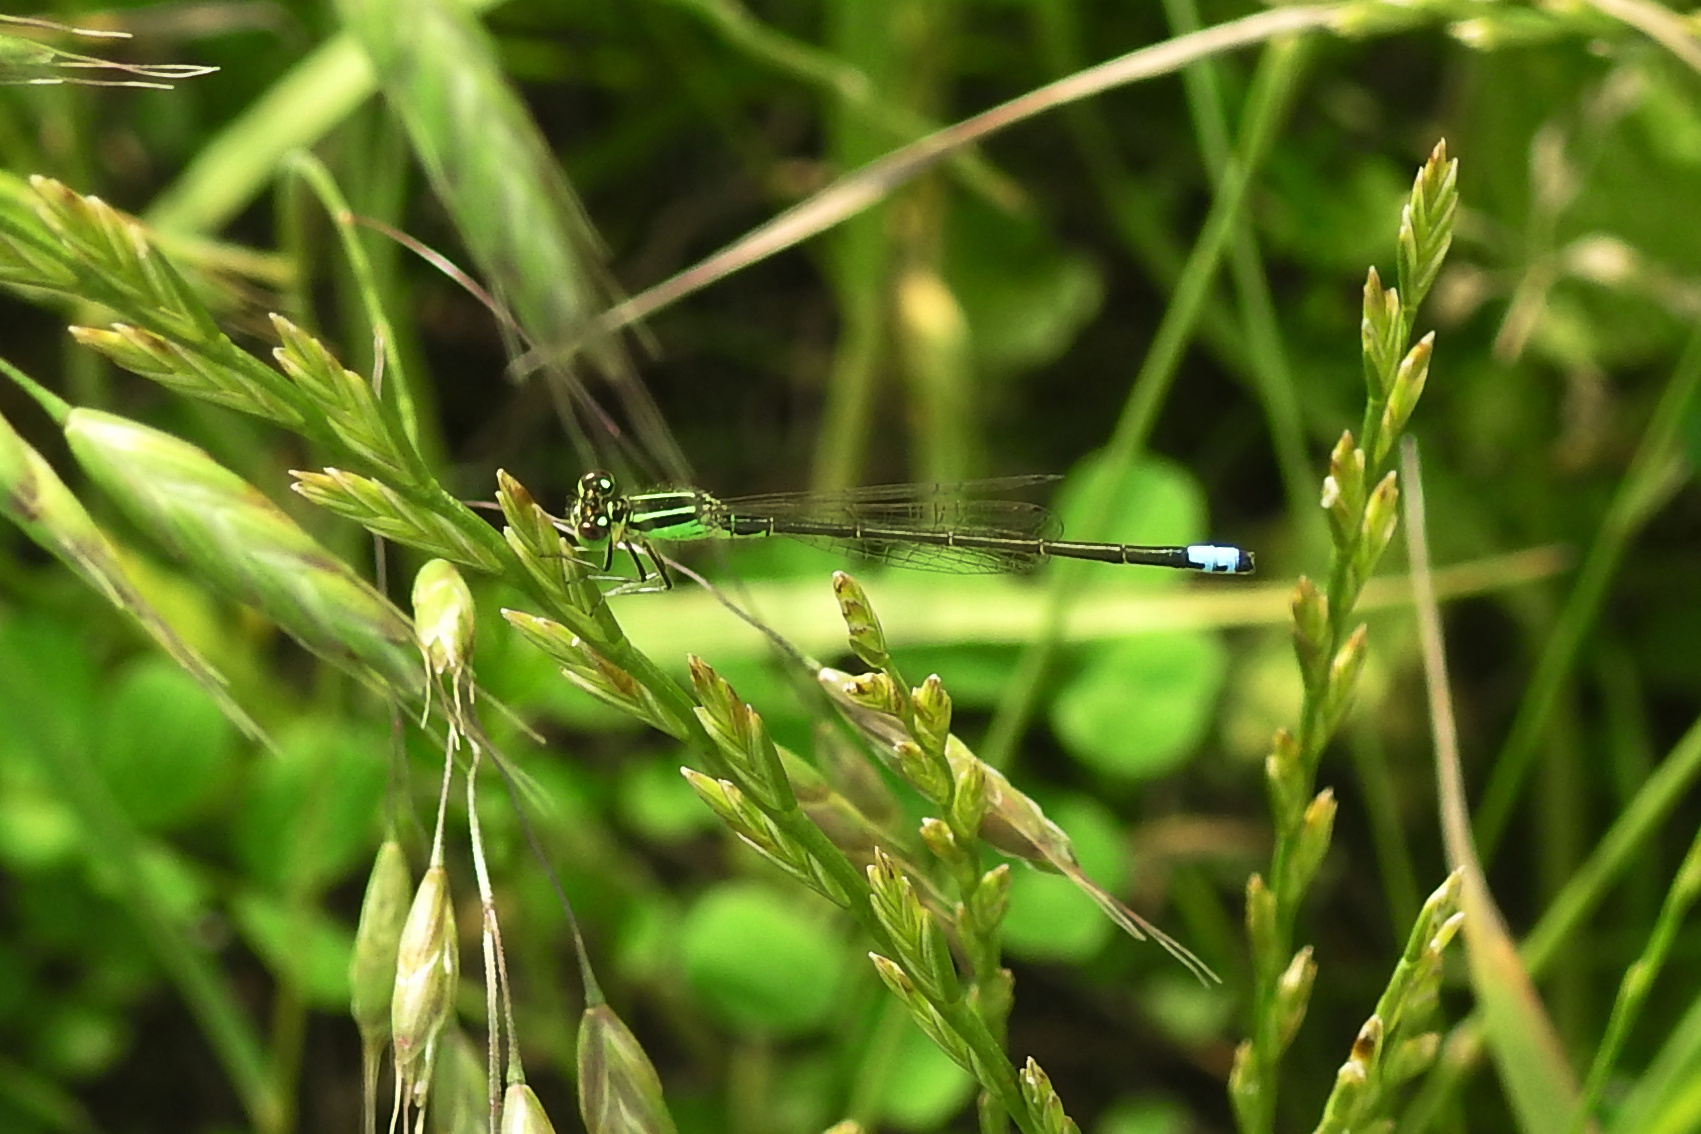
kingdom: Animalia
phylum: Arthropoda
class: Insecta
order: Odonata
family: Coenagrionidae
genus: Ischnura
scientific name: Ischnura verticalis
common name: Eastern forktail
